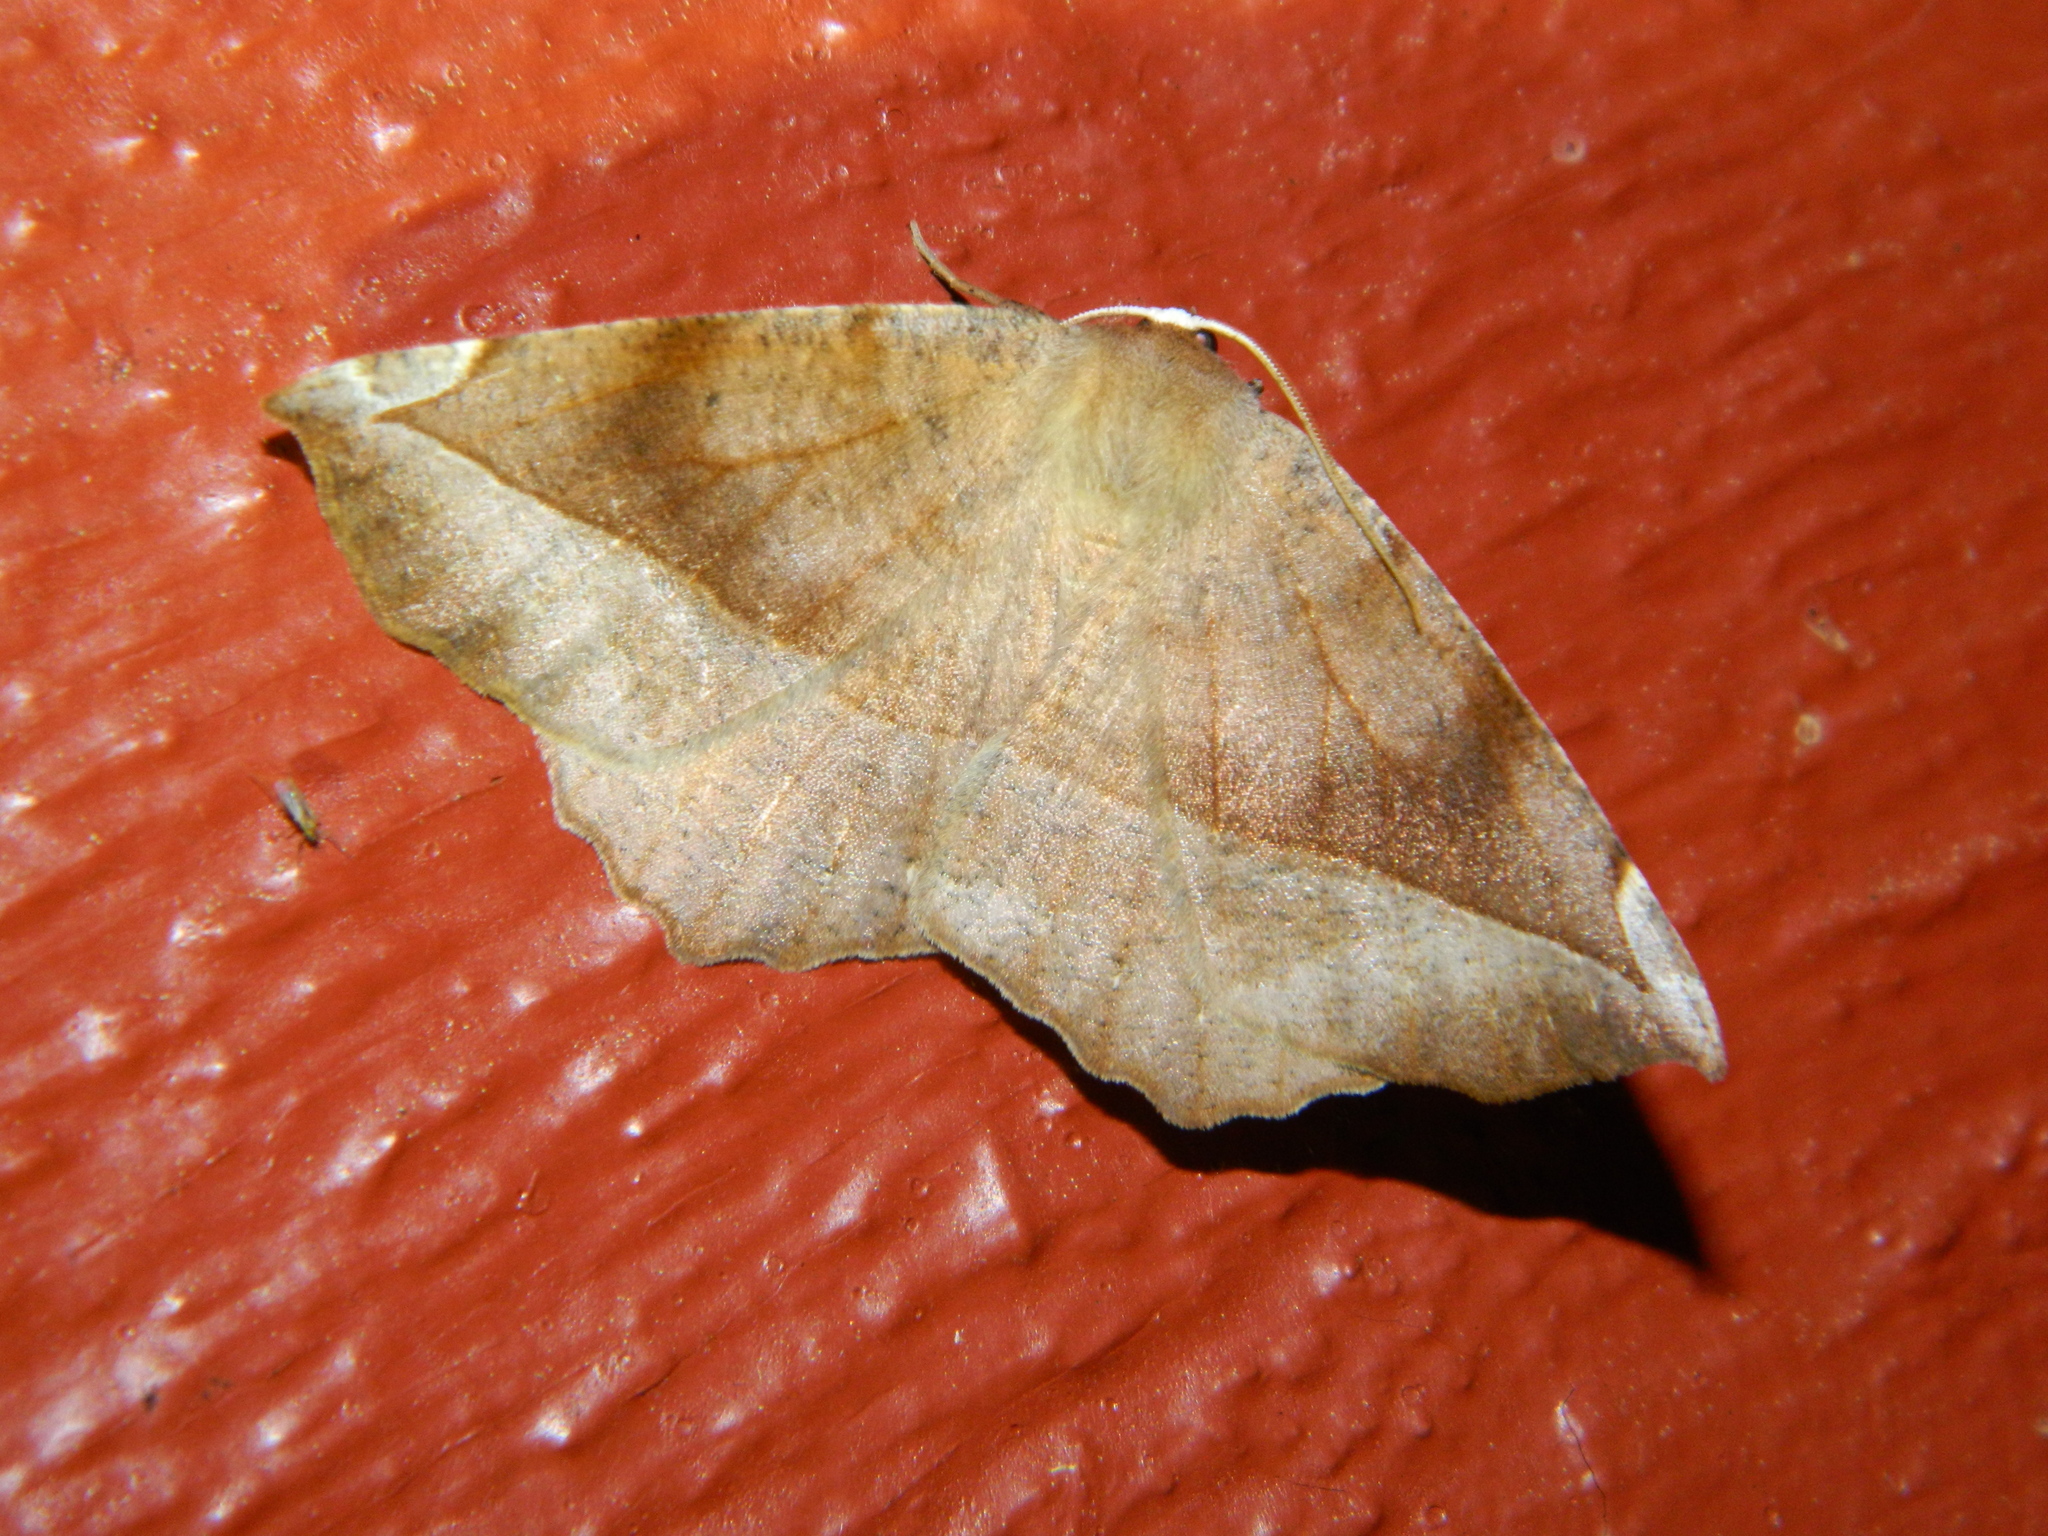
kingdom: Animalia
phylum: Arthropoda
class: Insecta
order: Lepidoptera
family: Geometridae
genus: Eutrapela
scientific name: Eutrapela clemataria
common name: Curved-toothed geometer
